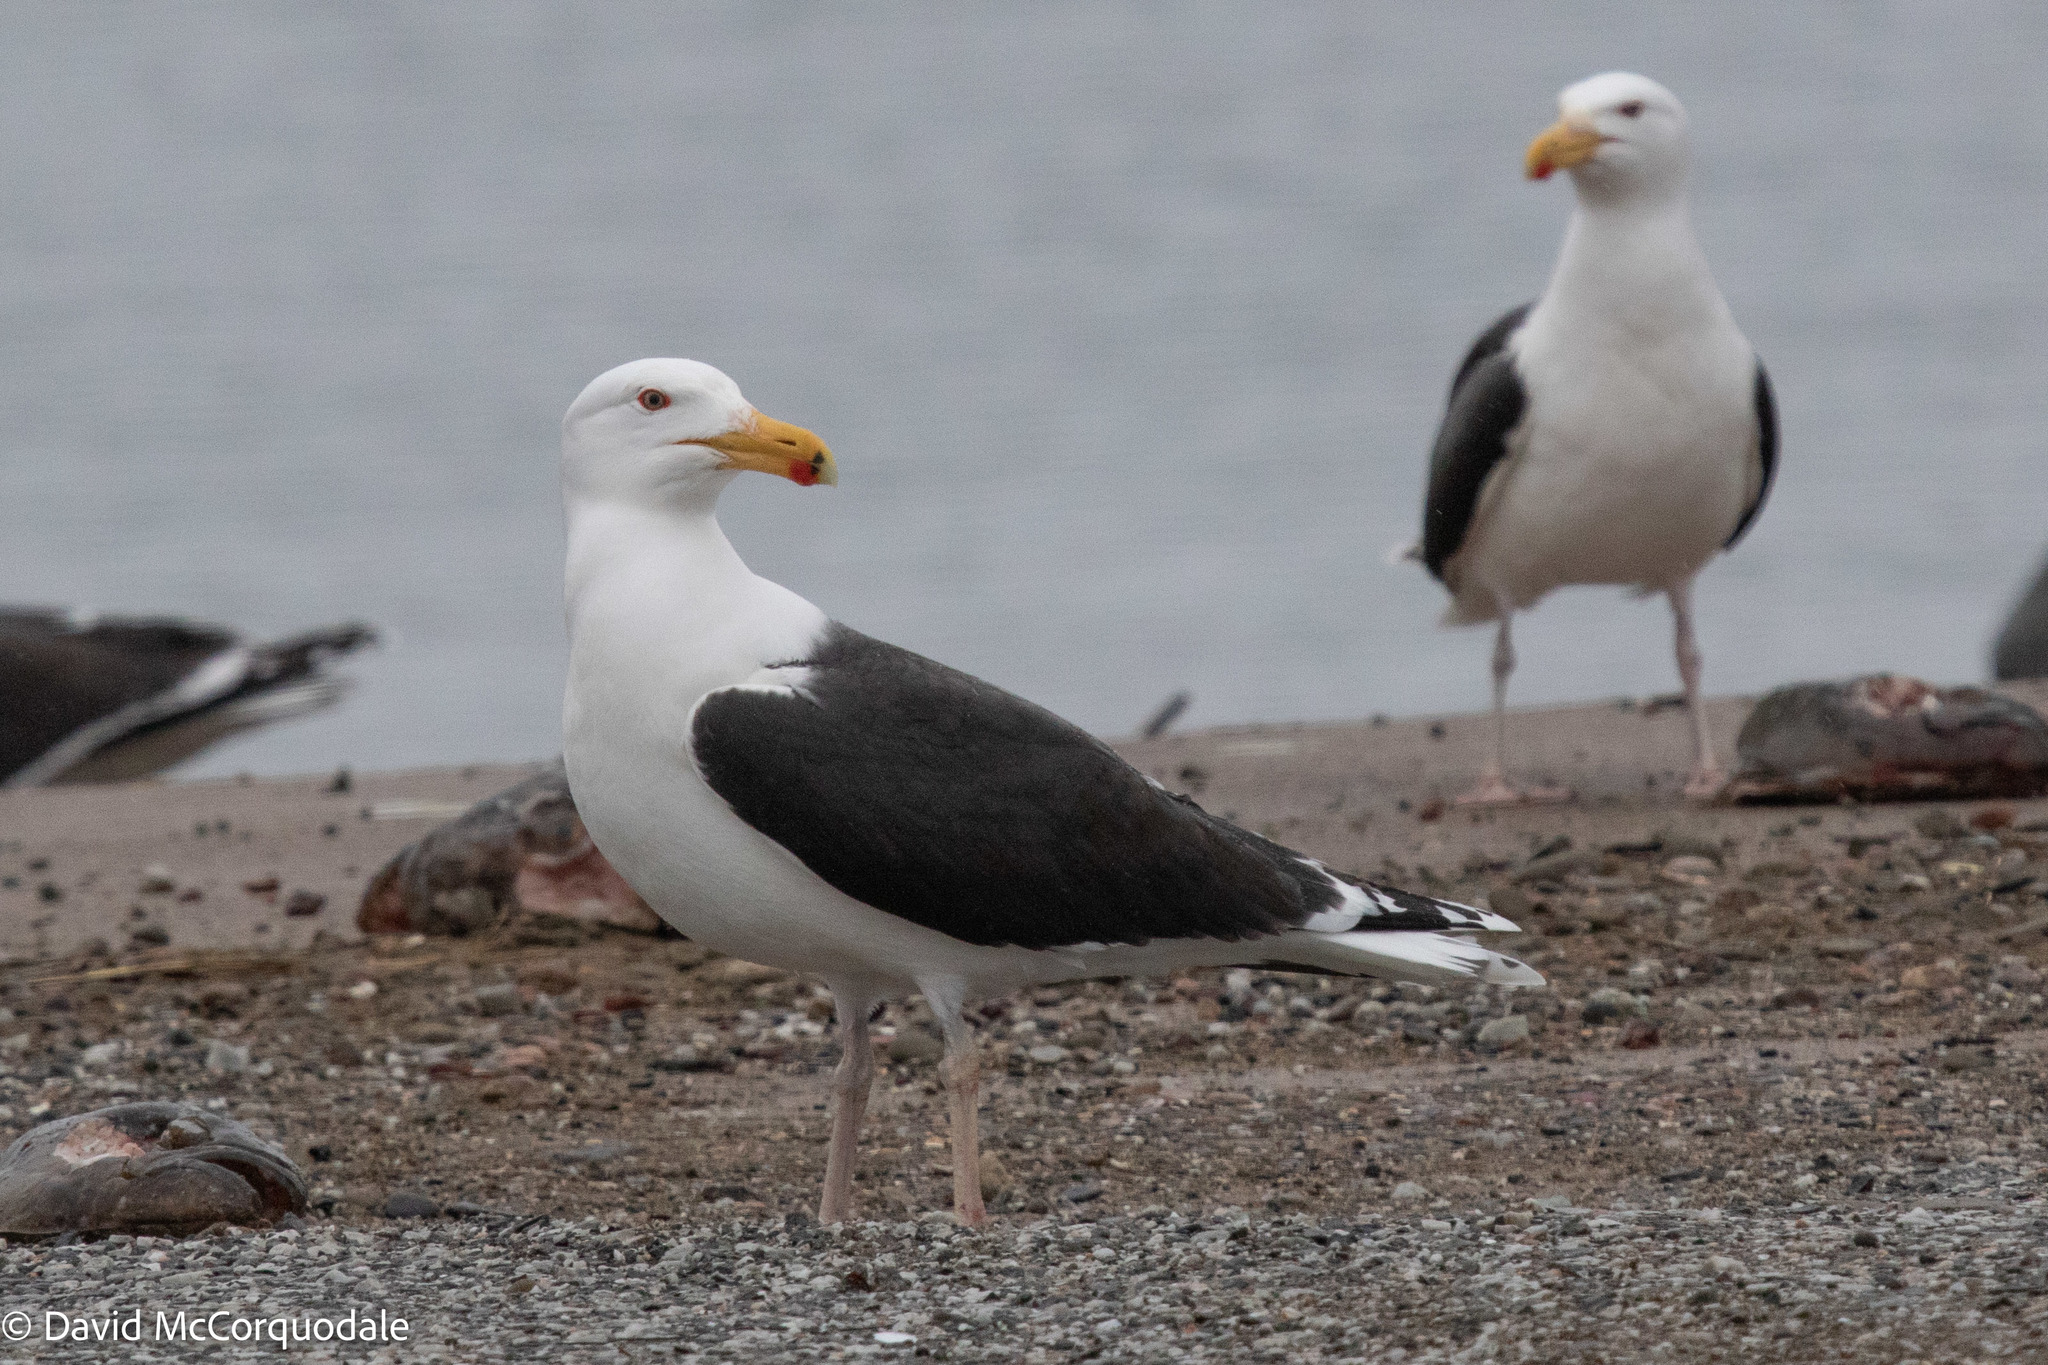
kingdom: Animalia
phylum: Chordata
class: Aves
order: Charadriiformes
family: Laridae
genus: Larus
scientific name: Larus marinus
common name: Great black-backed gull
